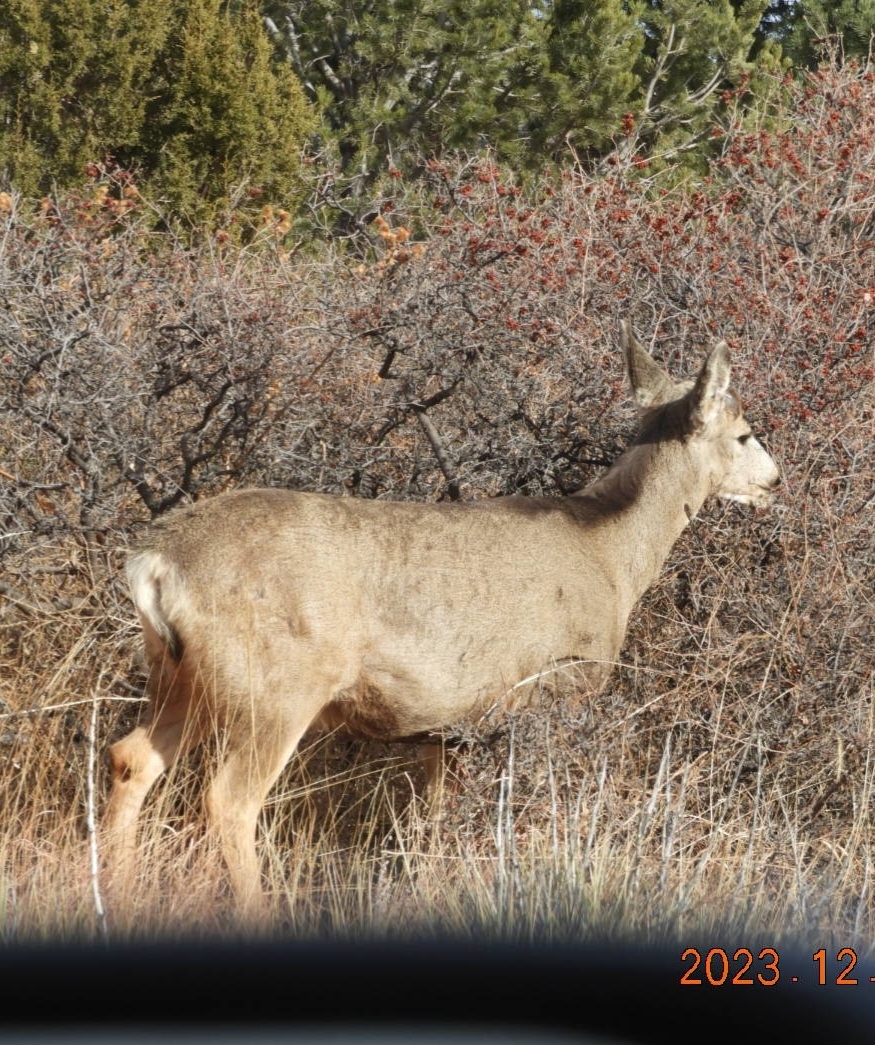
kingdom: Animalia
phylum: Chordata
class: Mammalia
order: Artiodactyla
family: Cervidae
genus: Odocoileus
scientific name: Odocoileus hemionus
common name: Mule deer
